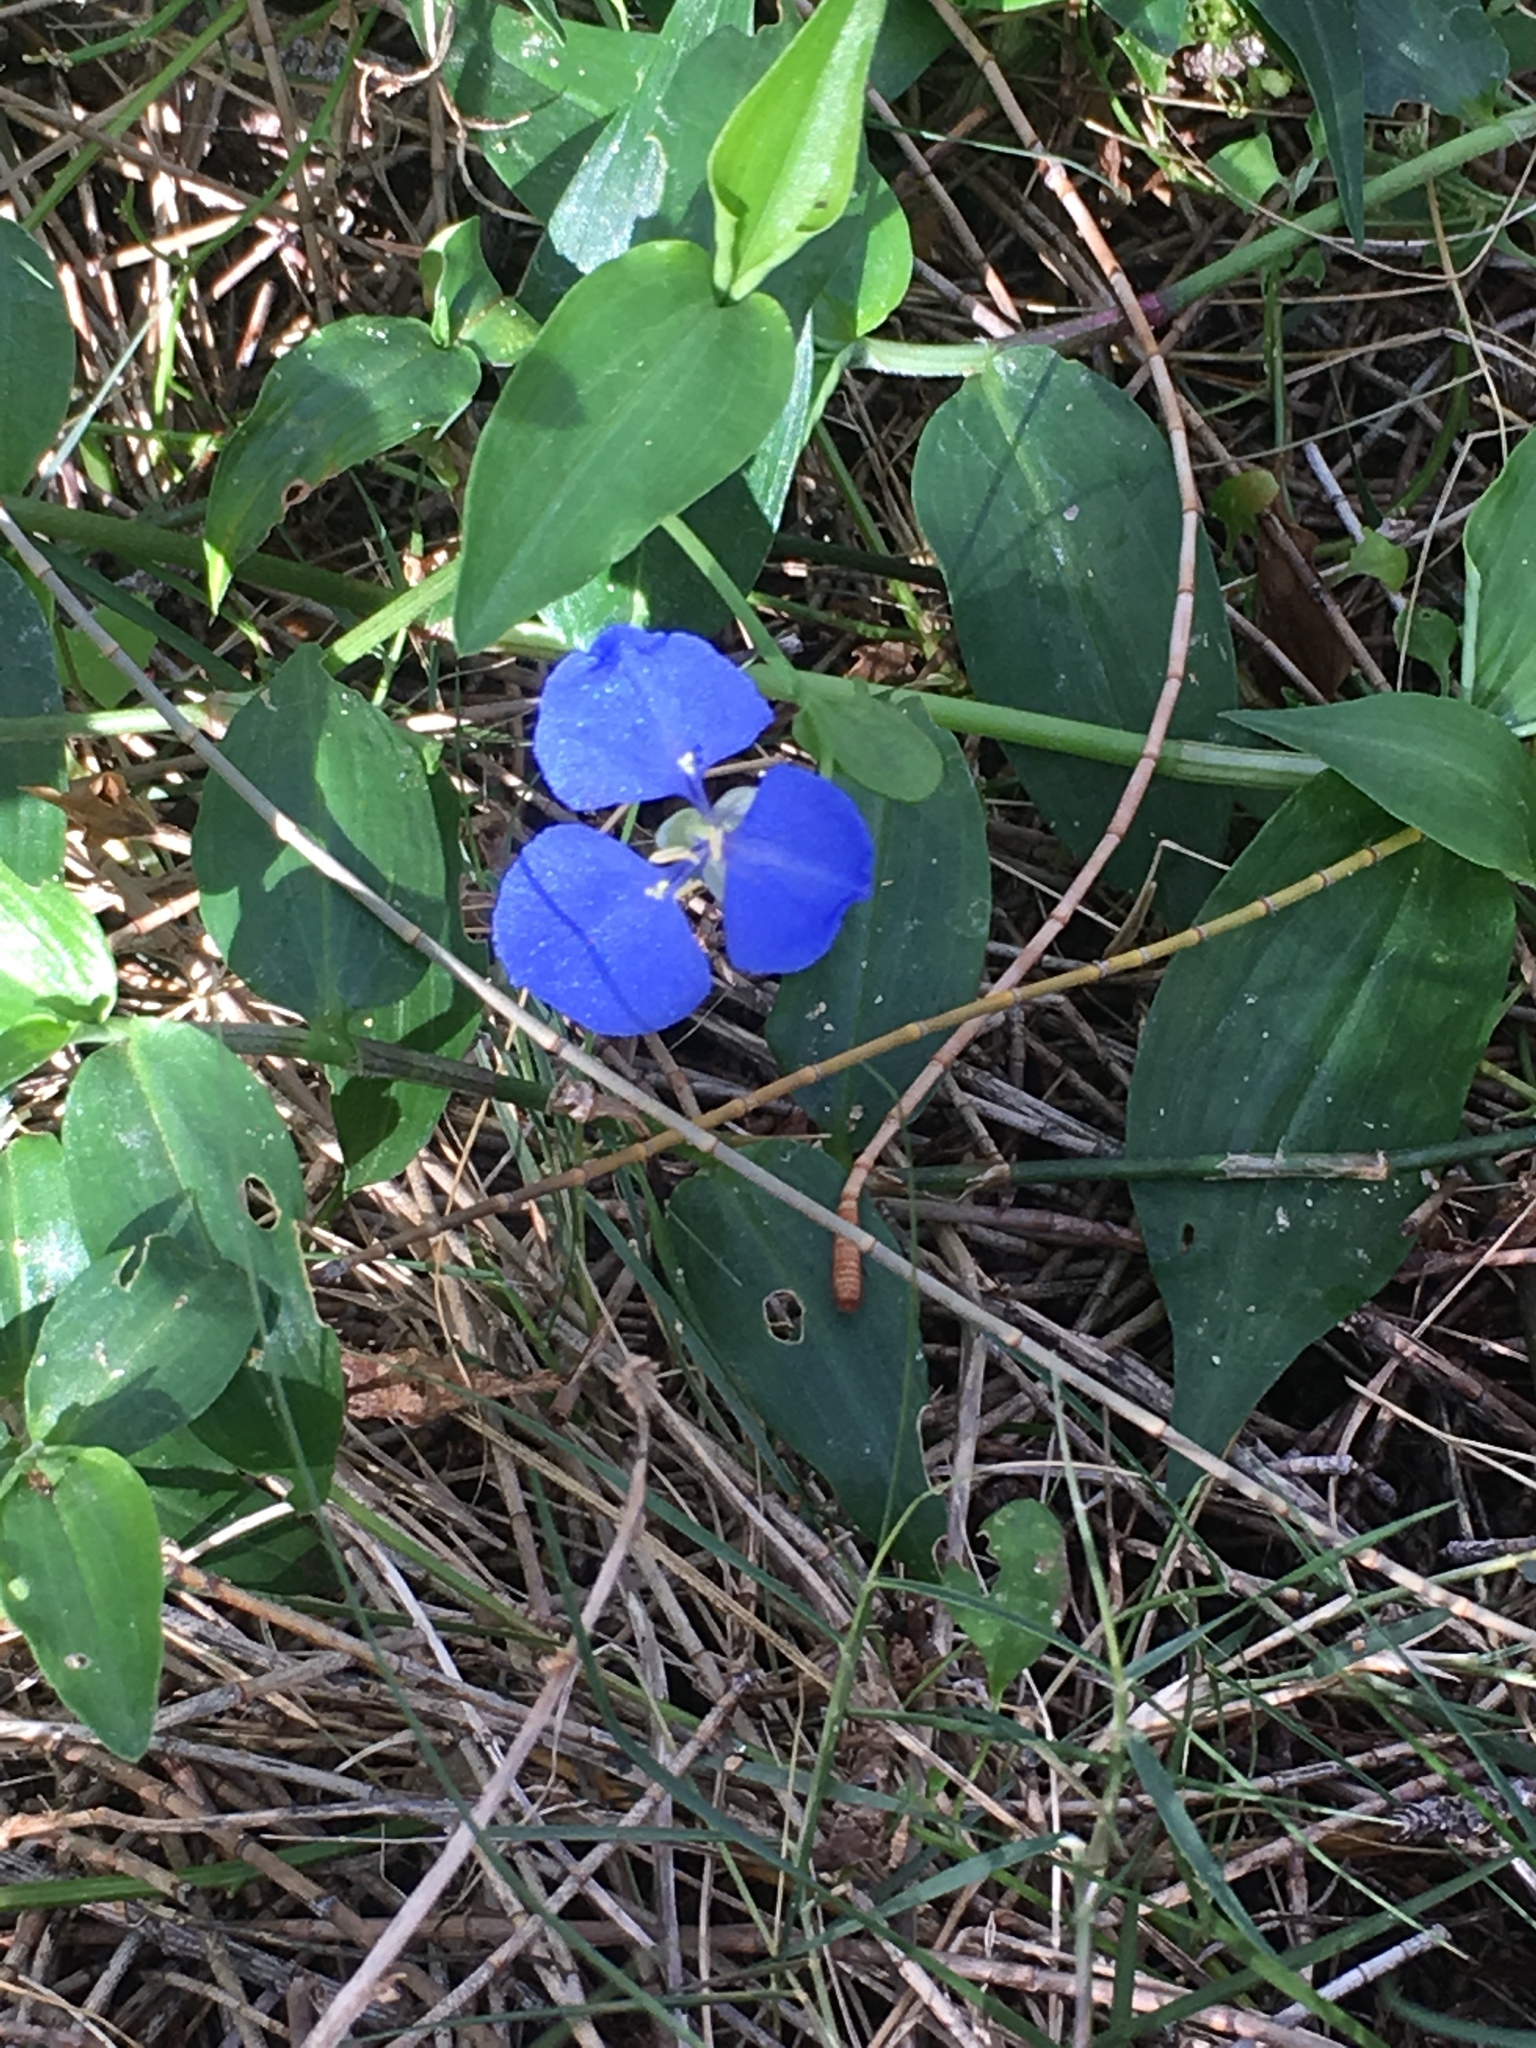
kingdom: Plantae
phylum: Tracheophyta
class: Liliopsida
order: Commelinales
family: Commelinaceae
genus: Commelina
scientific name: Commelina cyanea
